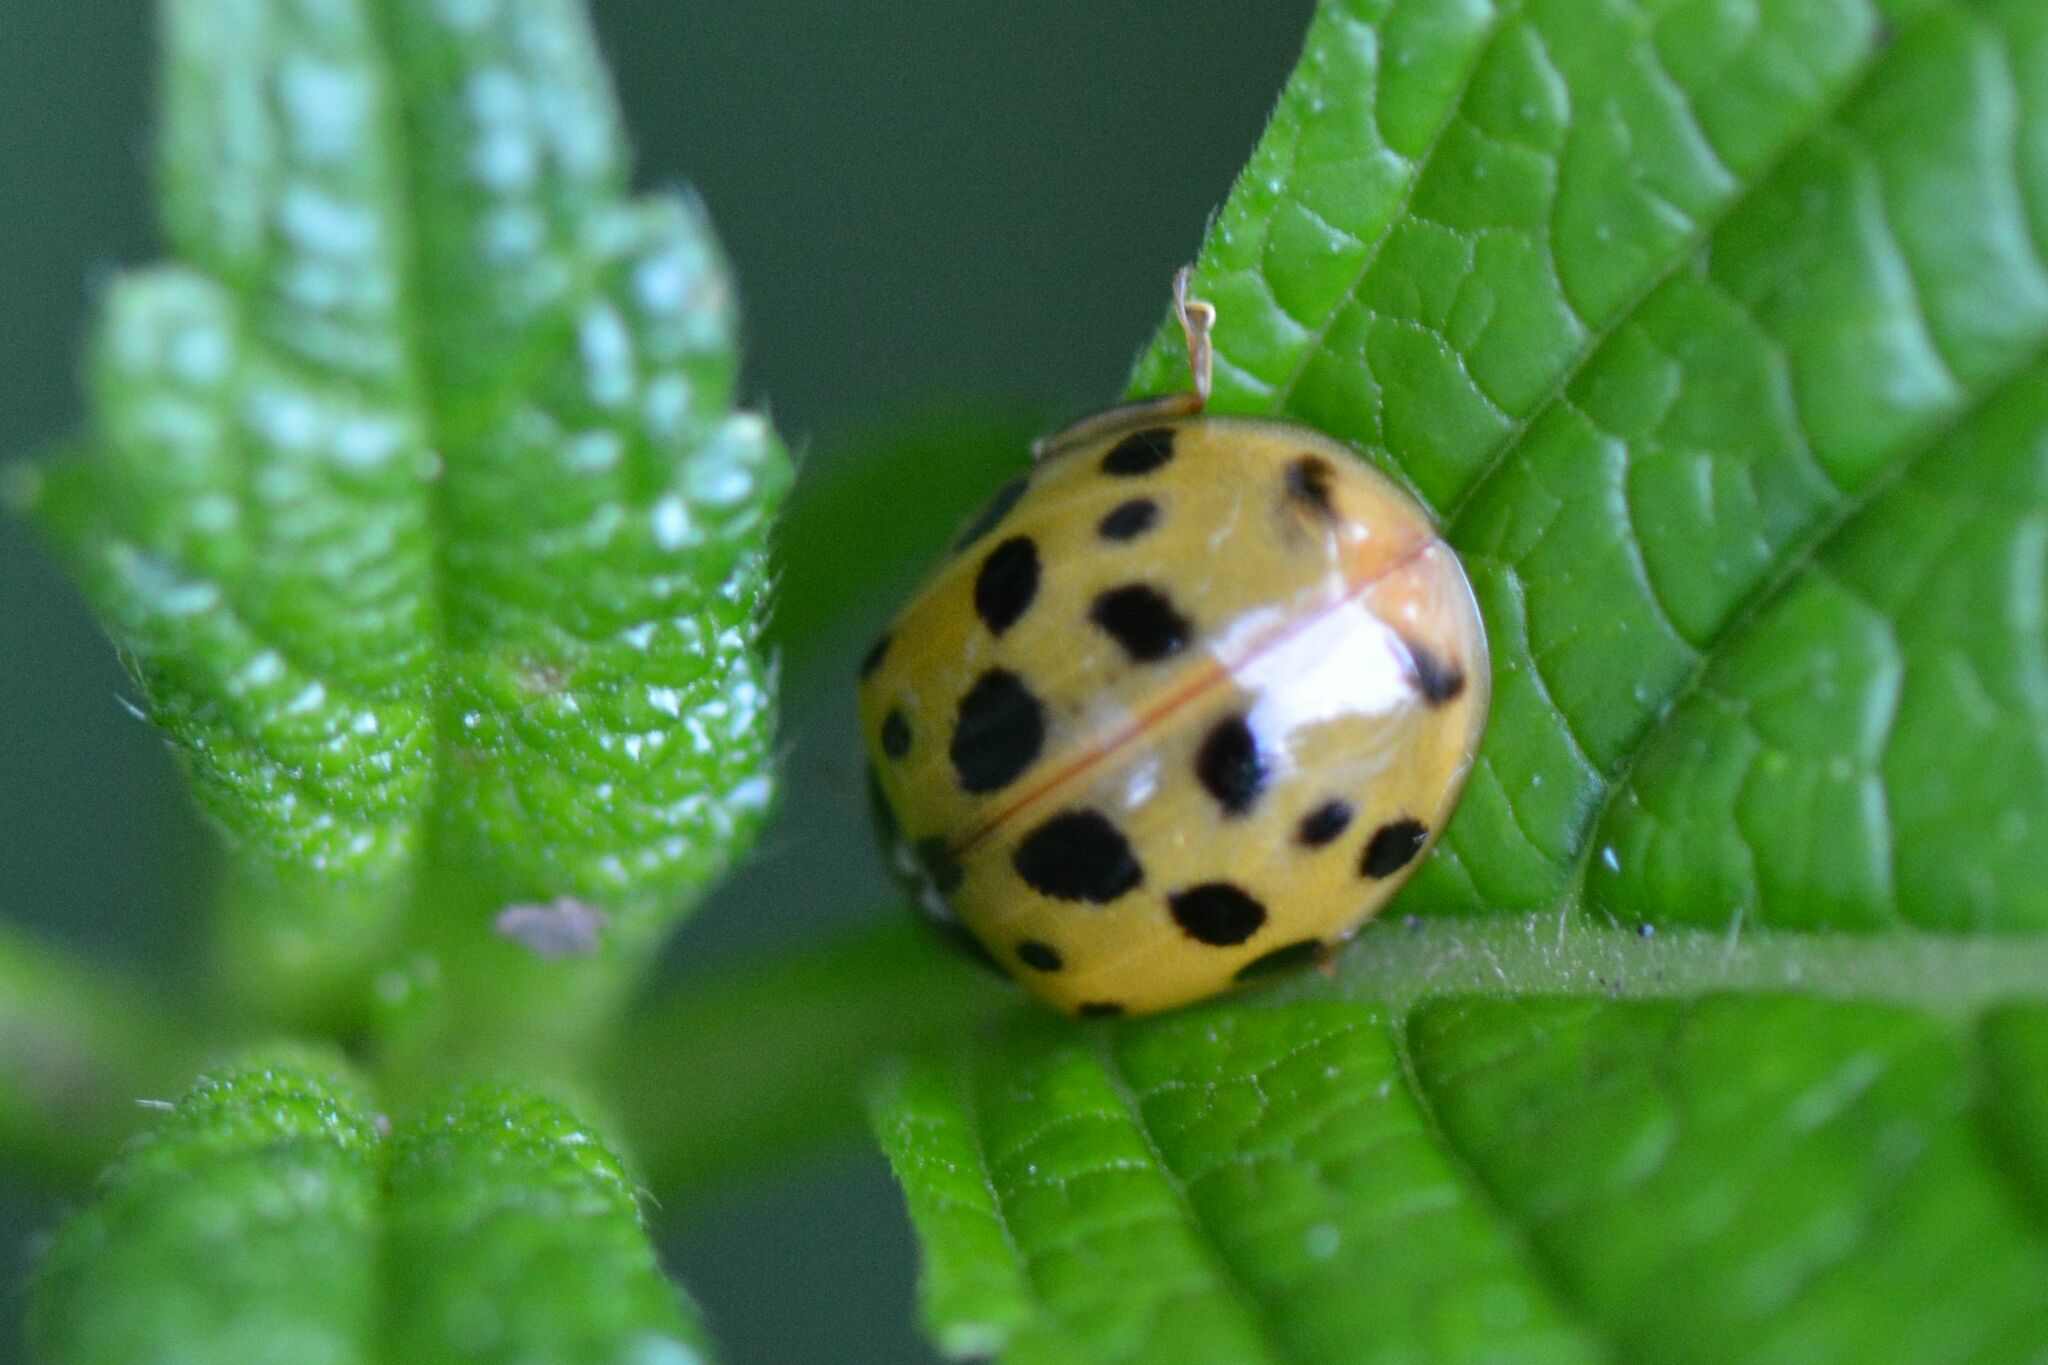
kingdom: Animalia
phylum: Arthropoda
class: Insecta
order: Coleoptera
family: Coccinellidae
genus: Harmonia
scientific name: Harmonia axyridis
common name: Harlequin ladybird
